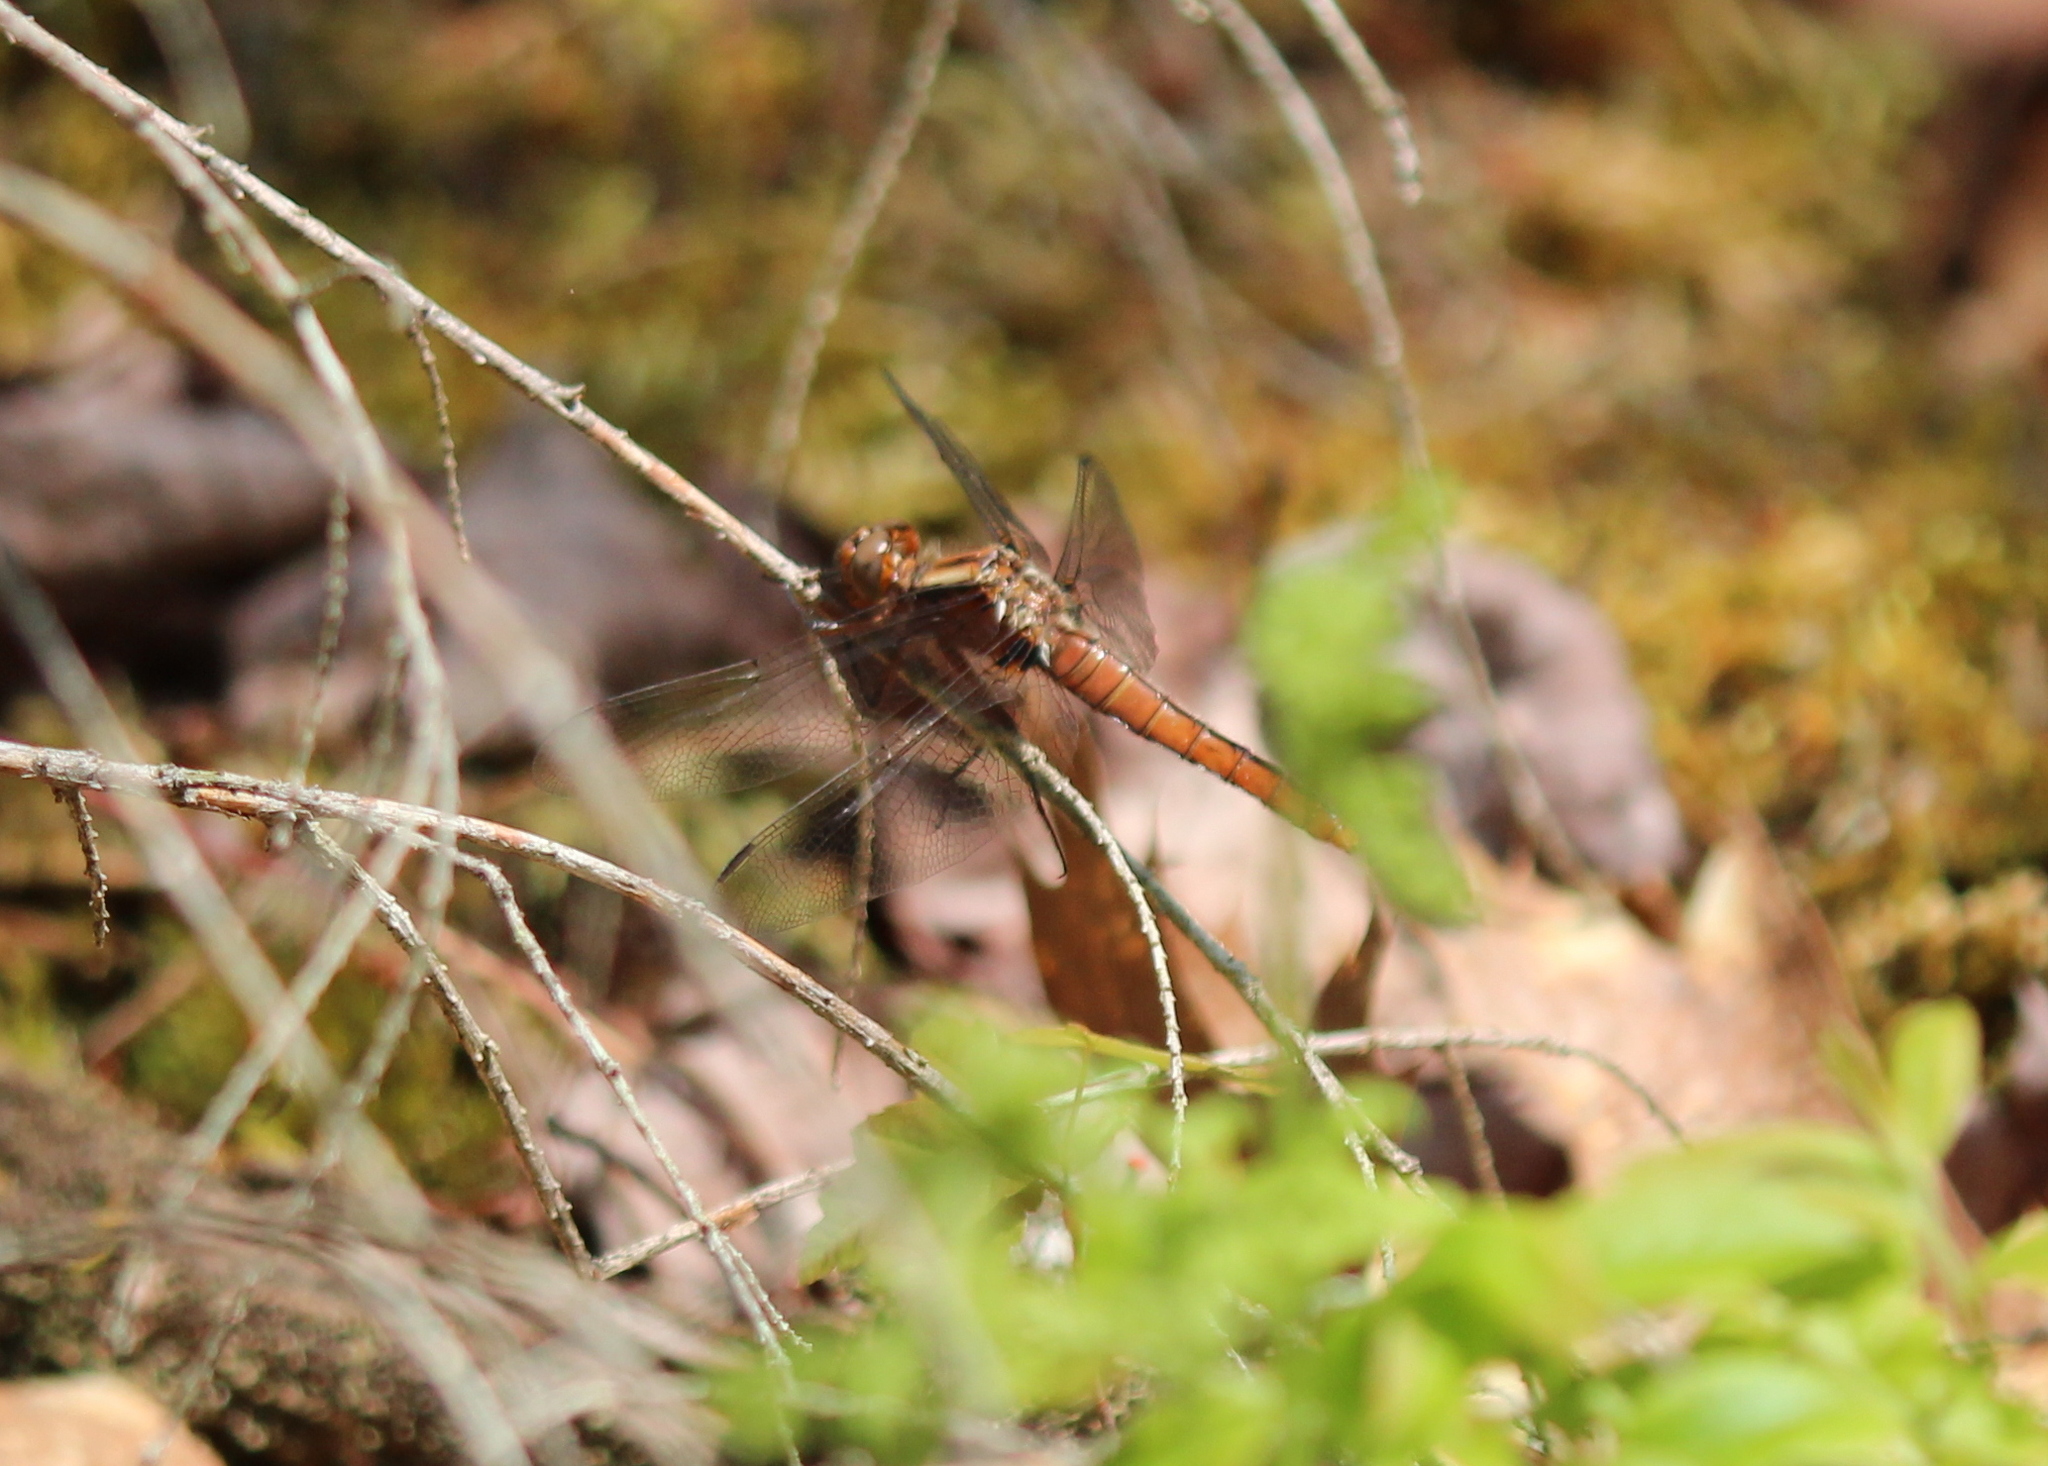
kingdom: Animalia
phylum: Arthropoda
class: Insecta
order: Odonata
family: Libellulidae
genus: Ladona
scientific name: Ladona julia
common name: Chalk-fronted corporal
